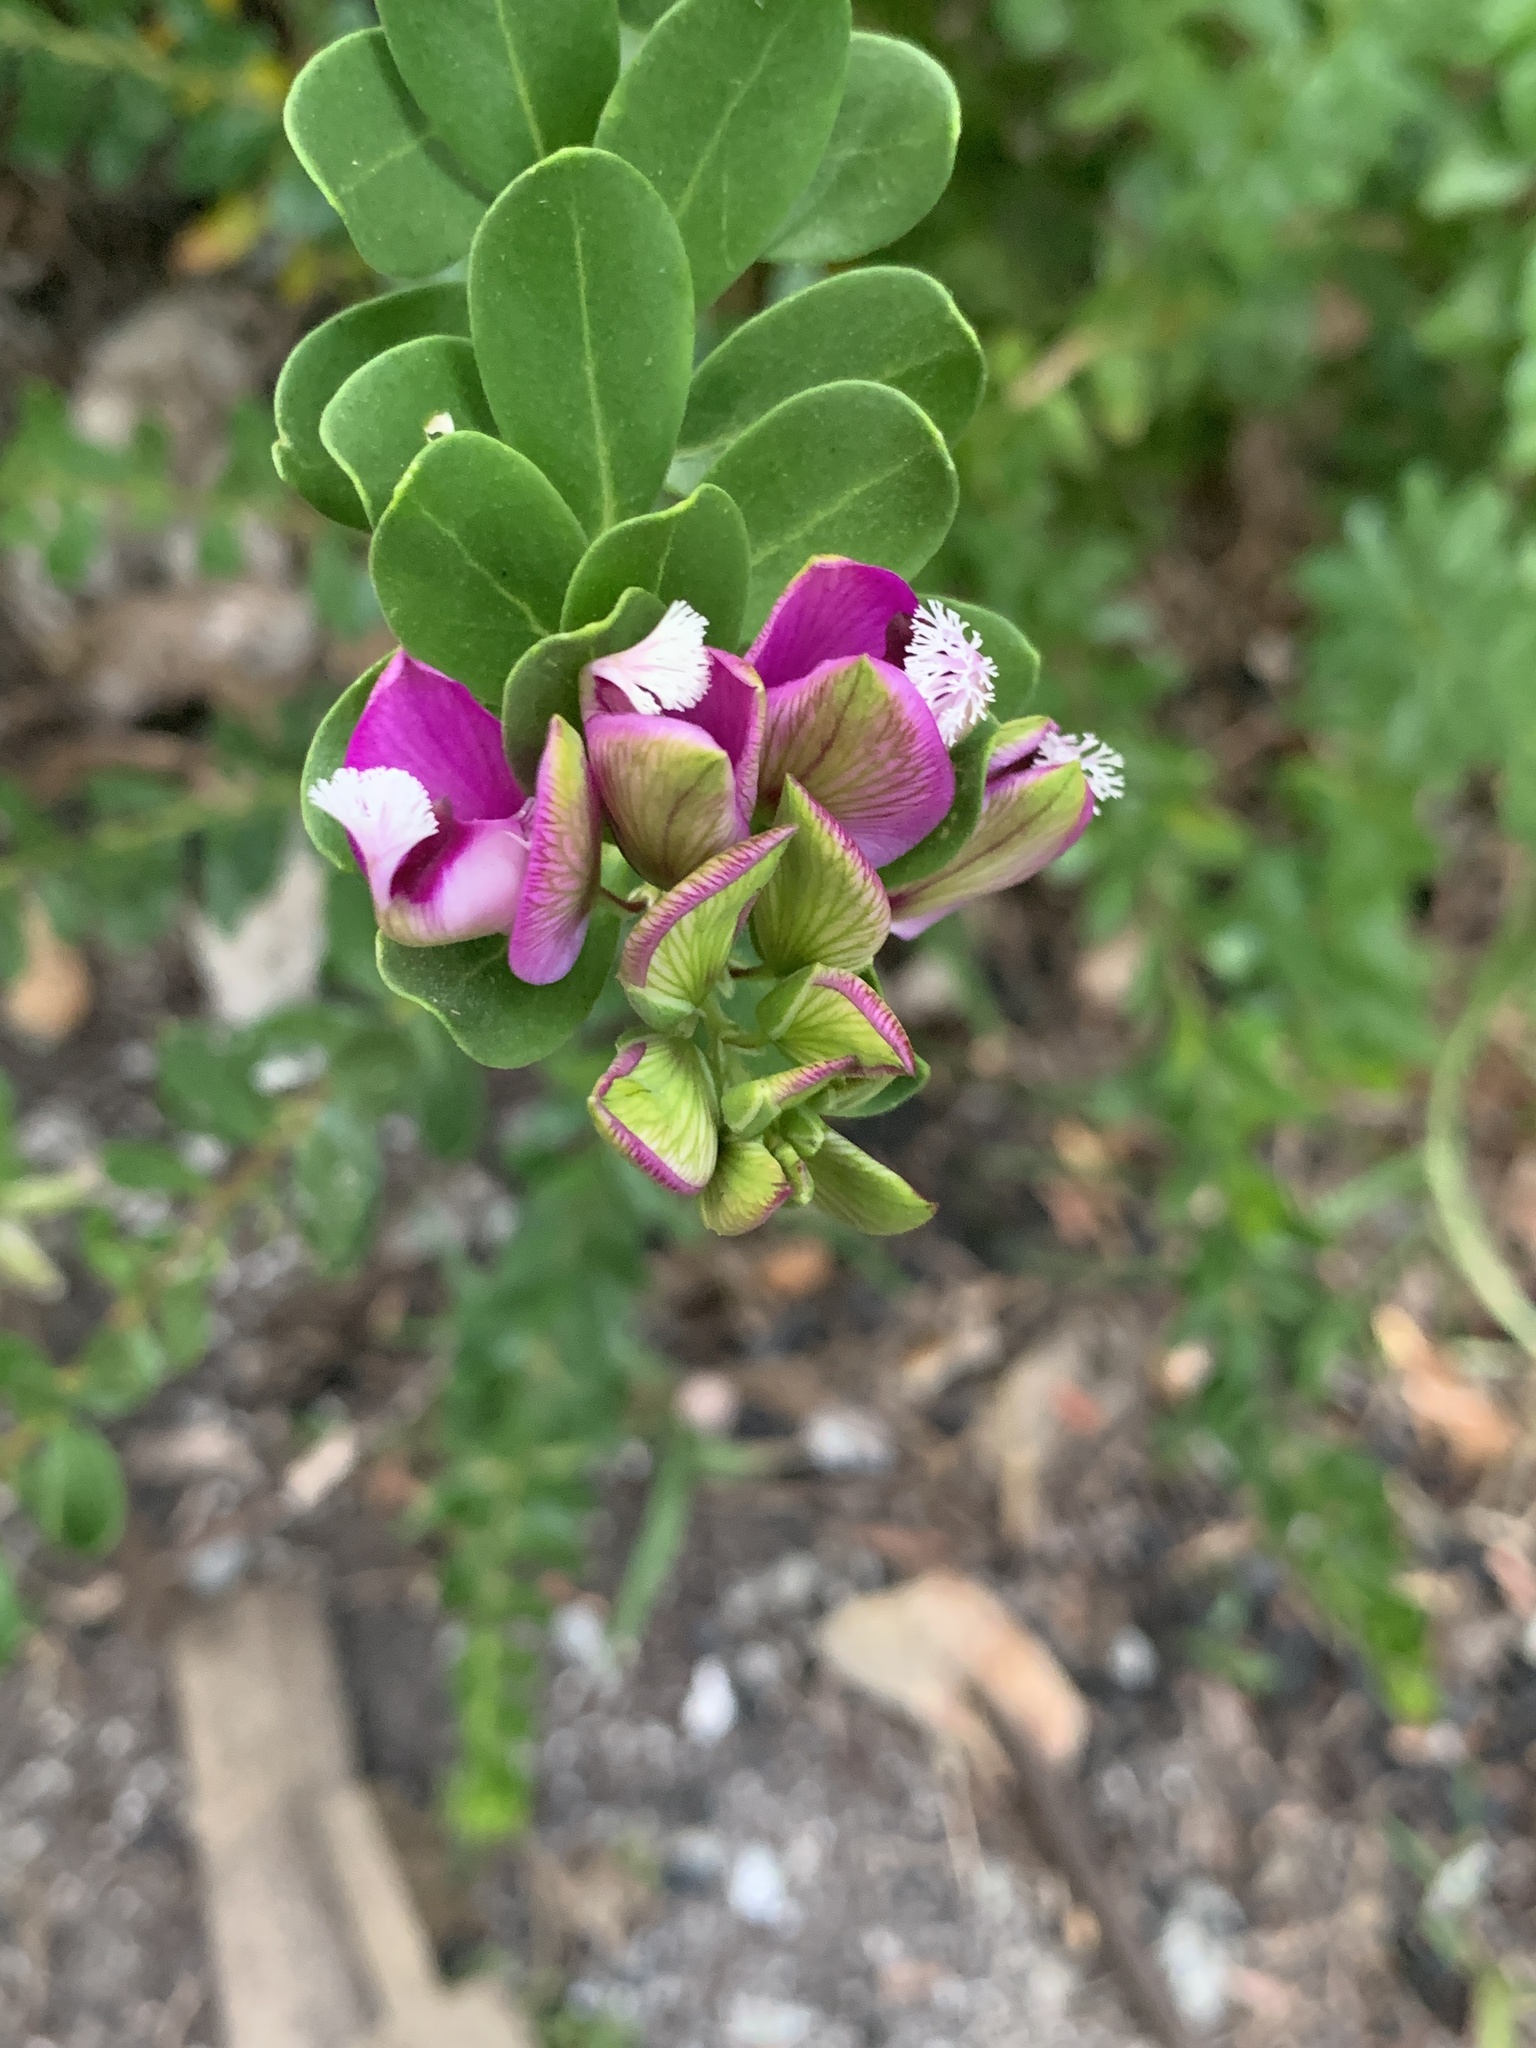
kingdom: Plantae
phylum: Tracheophyta
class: Magnoliopsida
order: Fabales
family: Polygalaceae
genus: Polygala
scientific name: Polygala myrtifolia
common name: Myrtle-leaf milkwort
